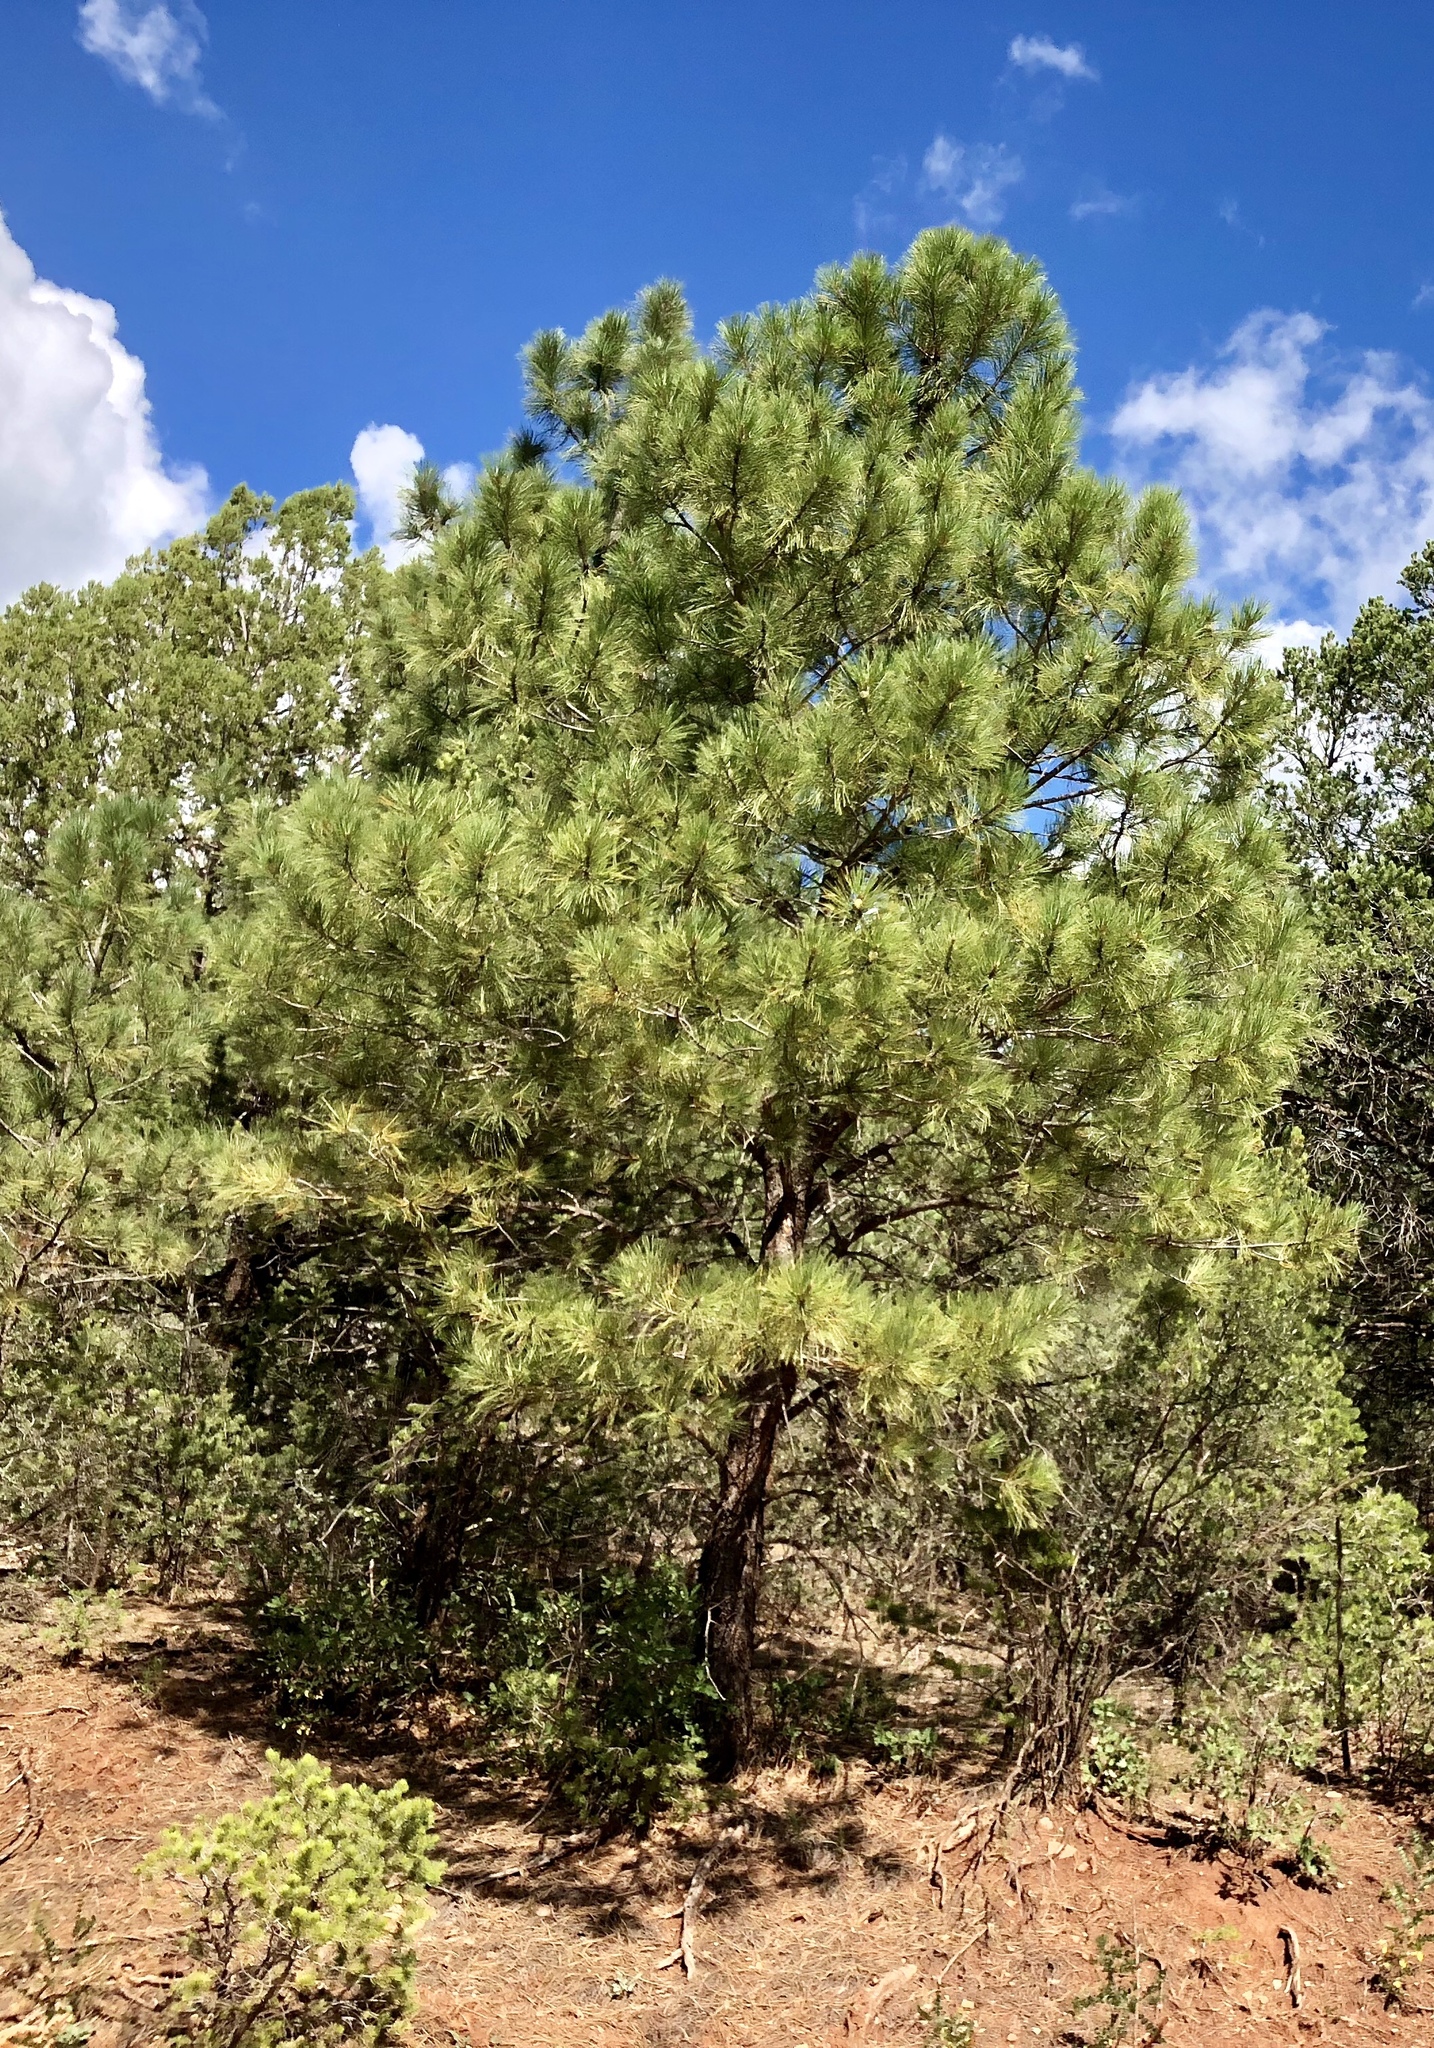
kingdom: Plantae
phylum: Tracheophyta
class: Pinopsida
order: Pinales
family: Pinaceae
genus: Pinus
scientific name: Pinus ponderosa
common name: Western yellow-pine
